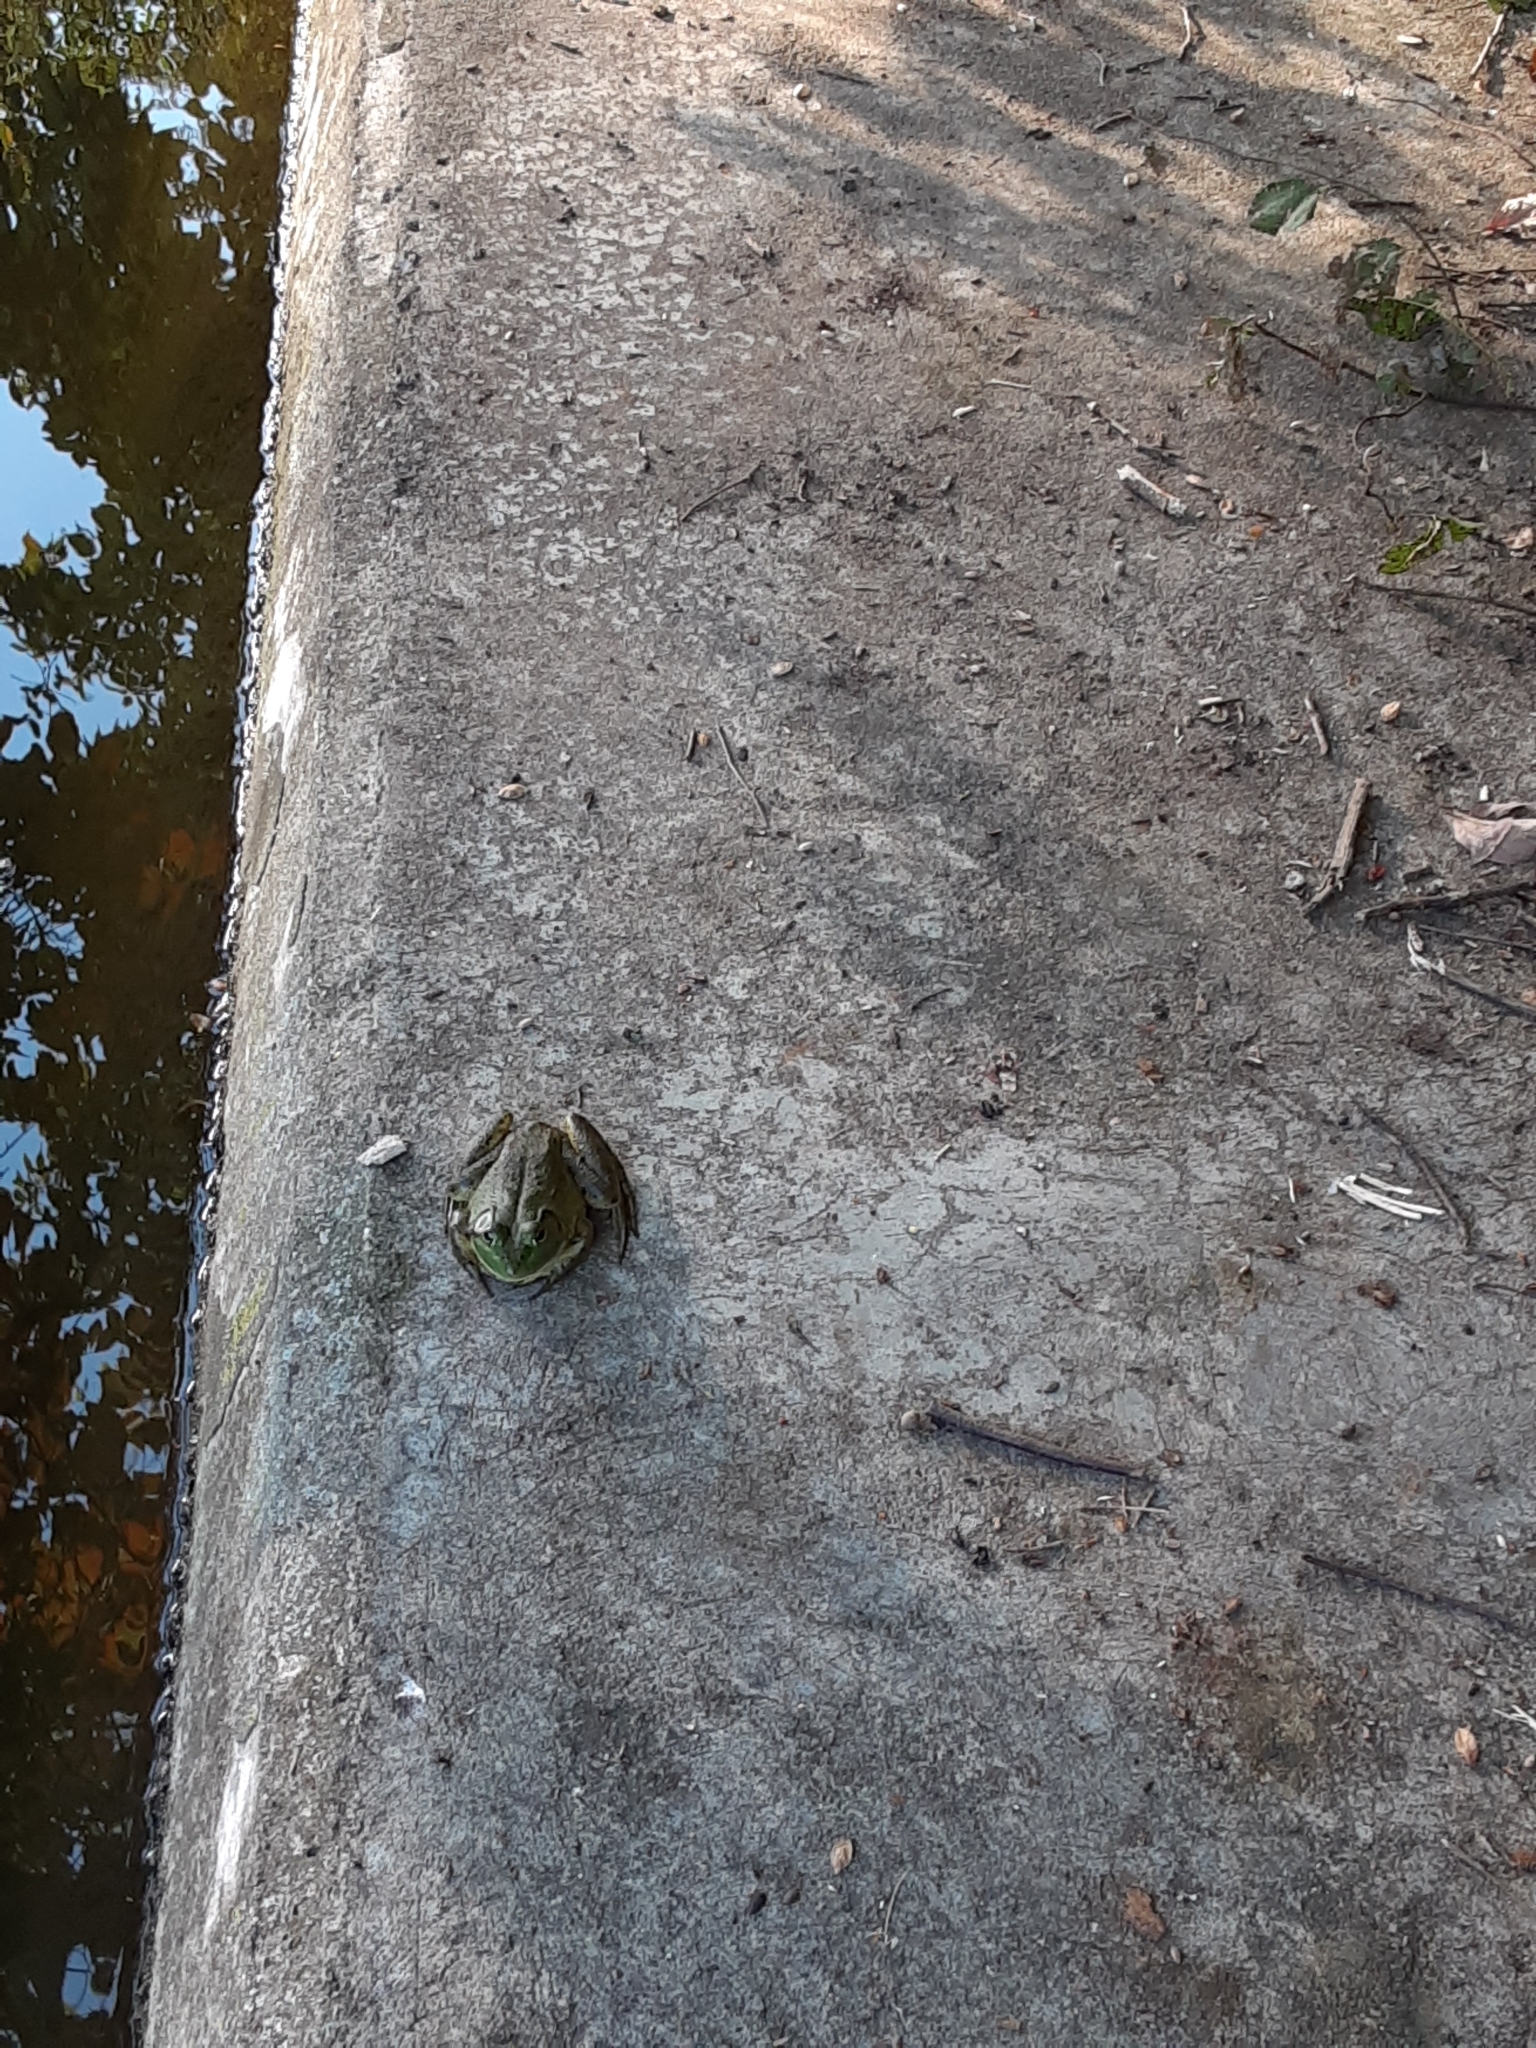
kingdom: Animalia
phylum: Chordata
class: Amphibia
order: Anura
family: Ranidae
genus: Lithobates
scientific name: Lithobates catesbeianus
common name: American bullfrog
